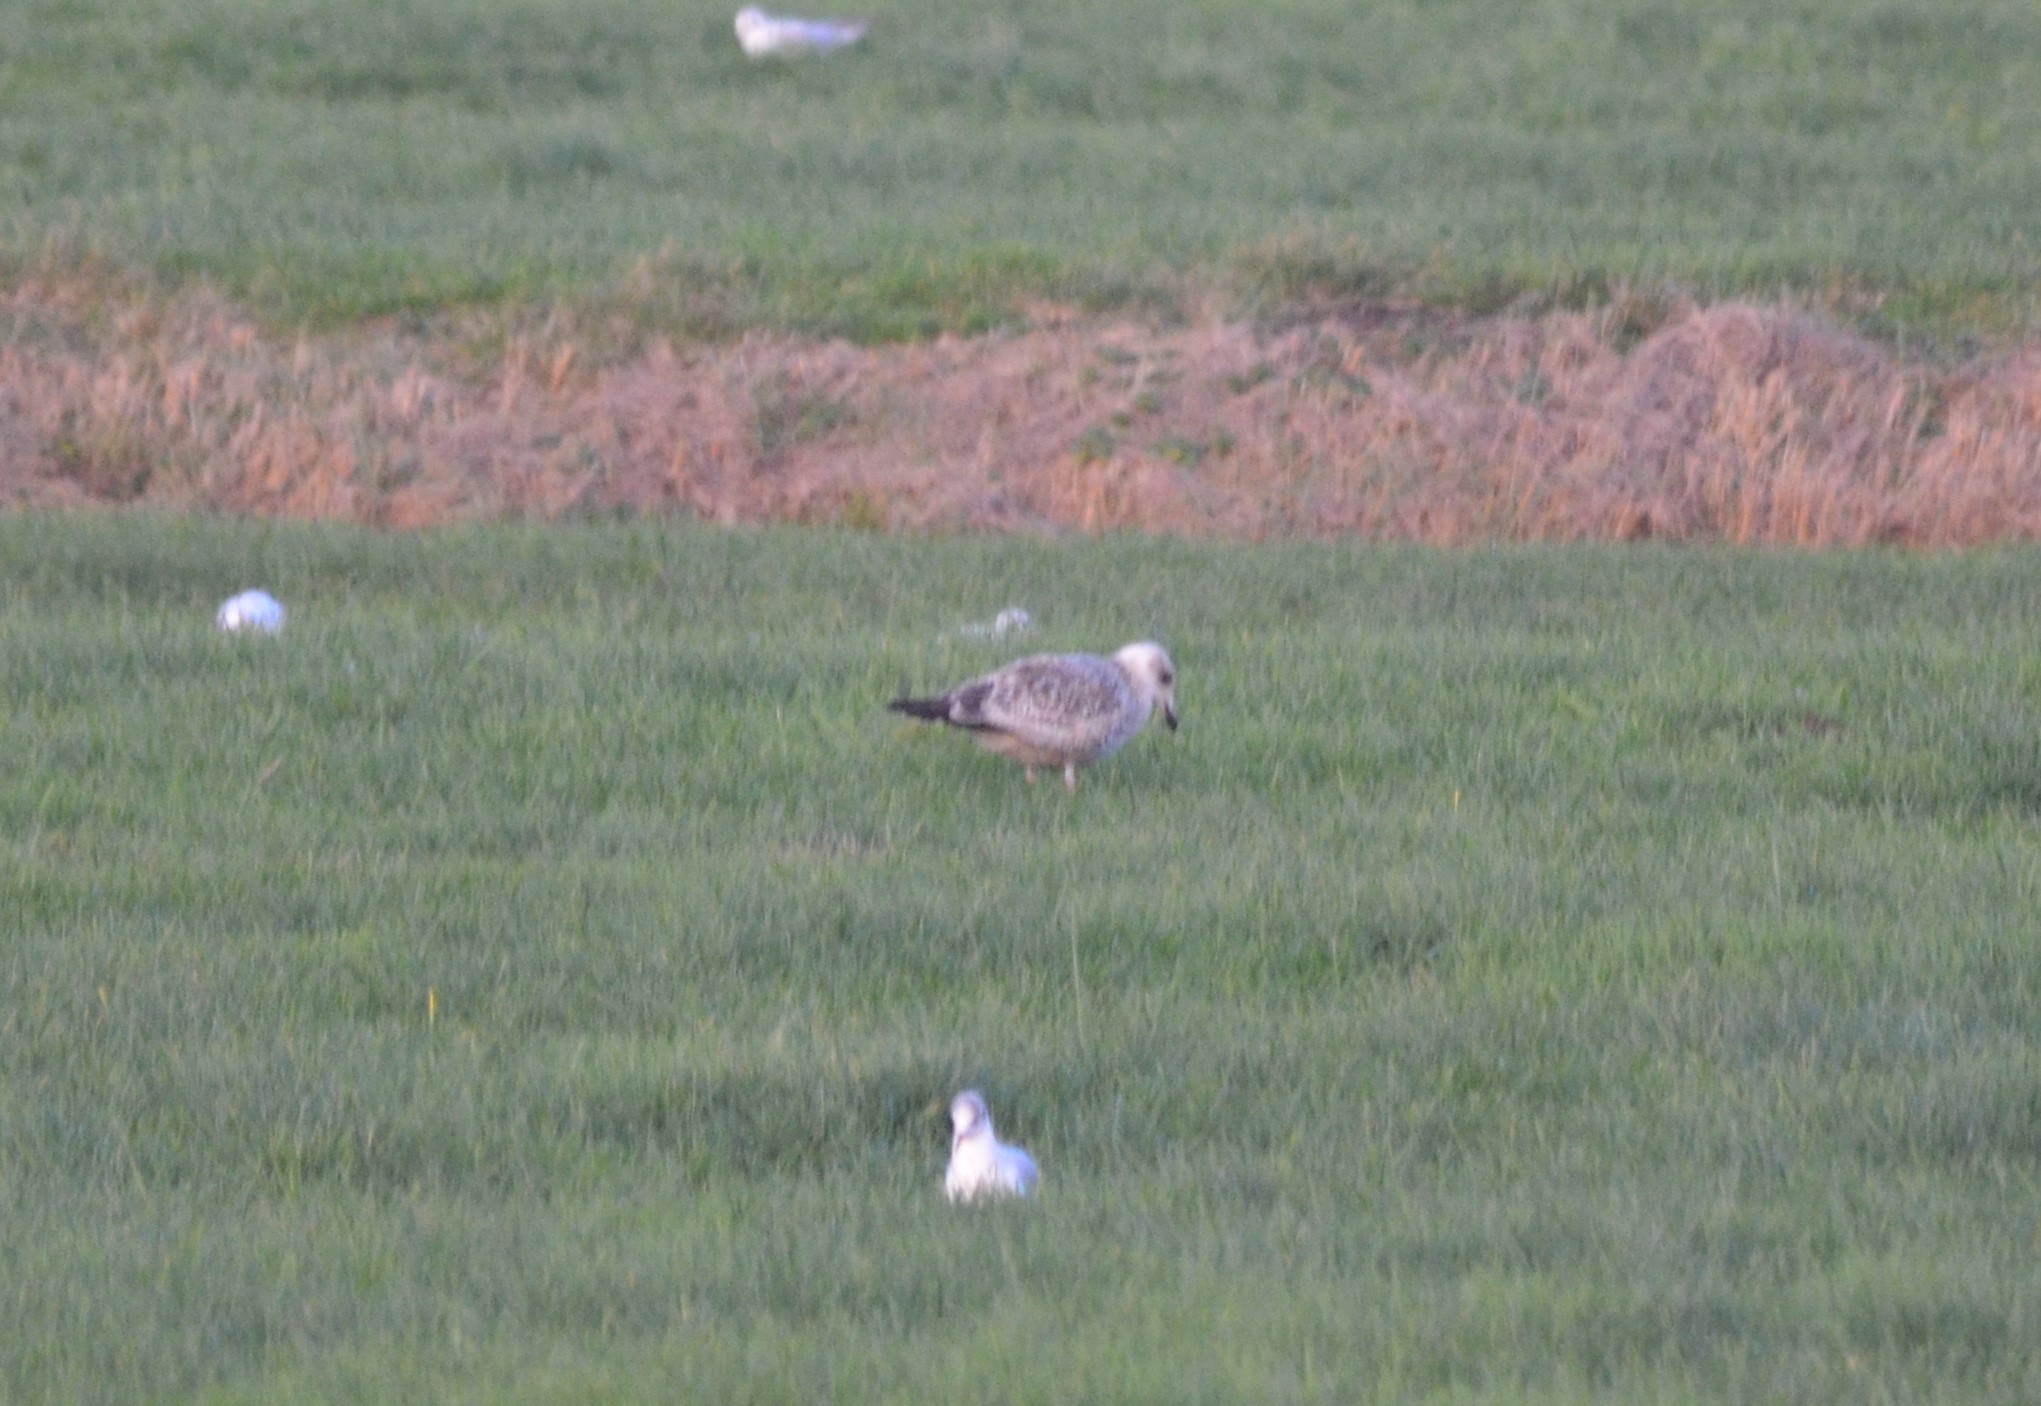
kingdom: Animalia
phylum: Chordata
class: Aves
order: Charadriiformes
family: Laridae
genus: Larus
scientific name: Larus argentatus
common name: Herring gull
